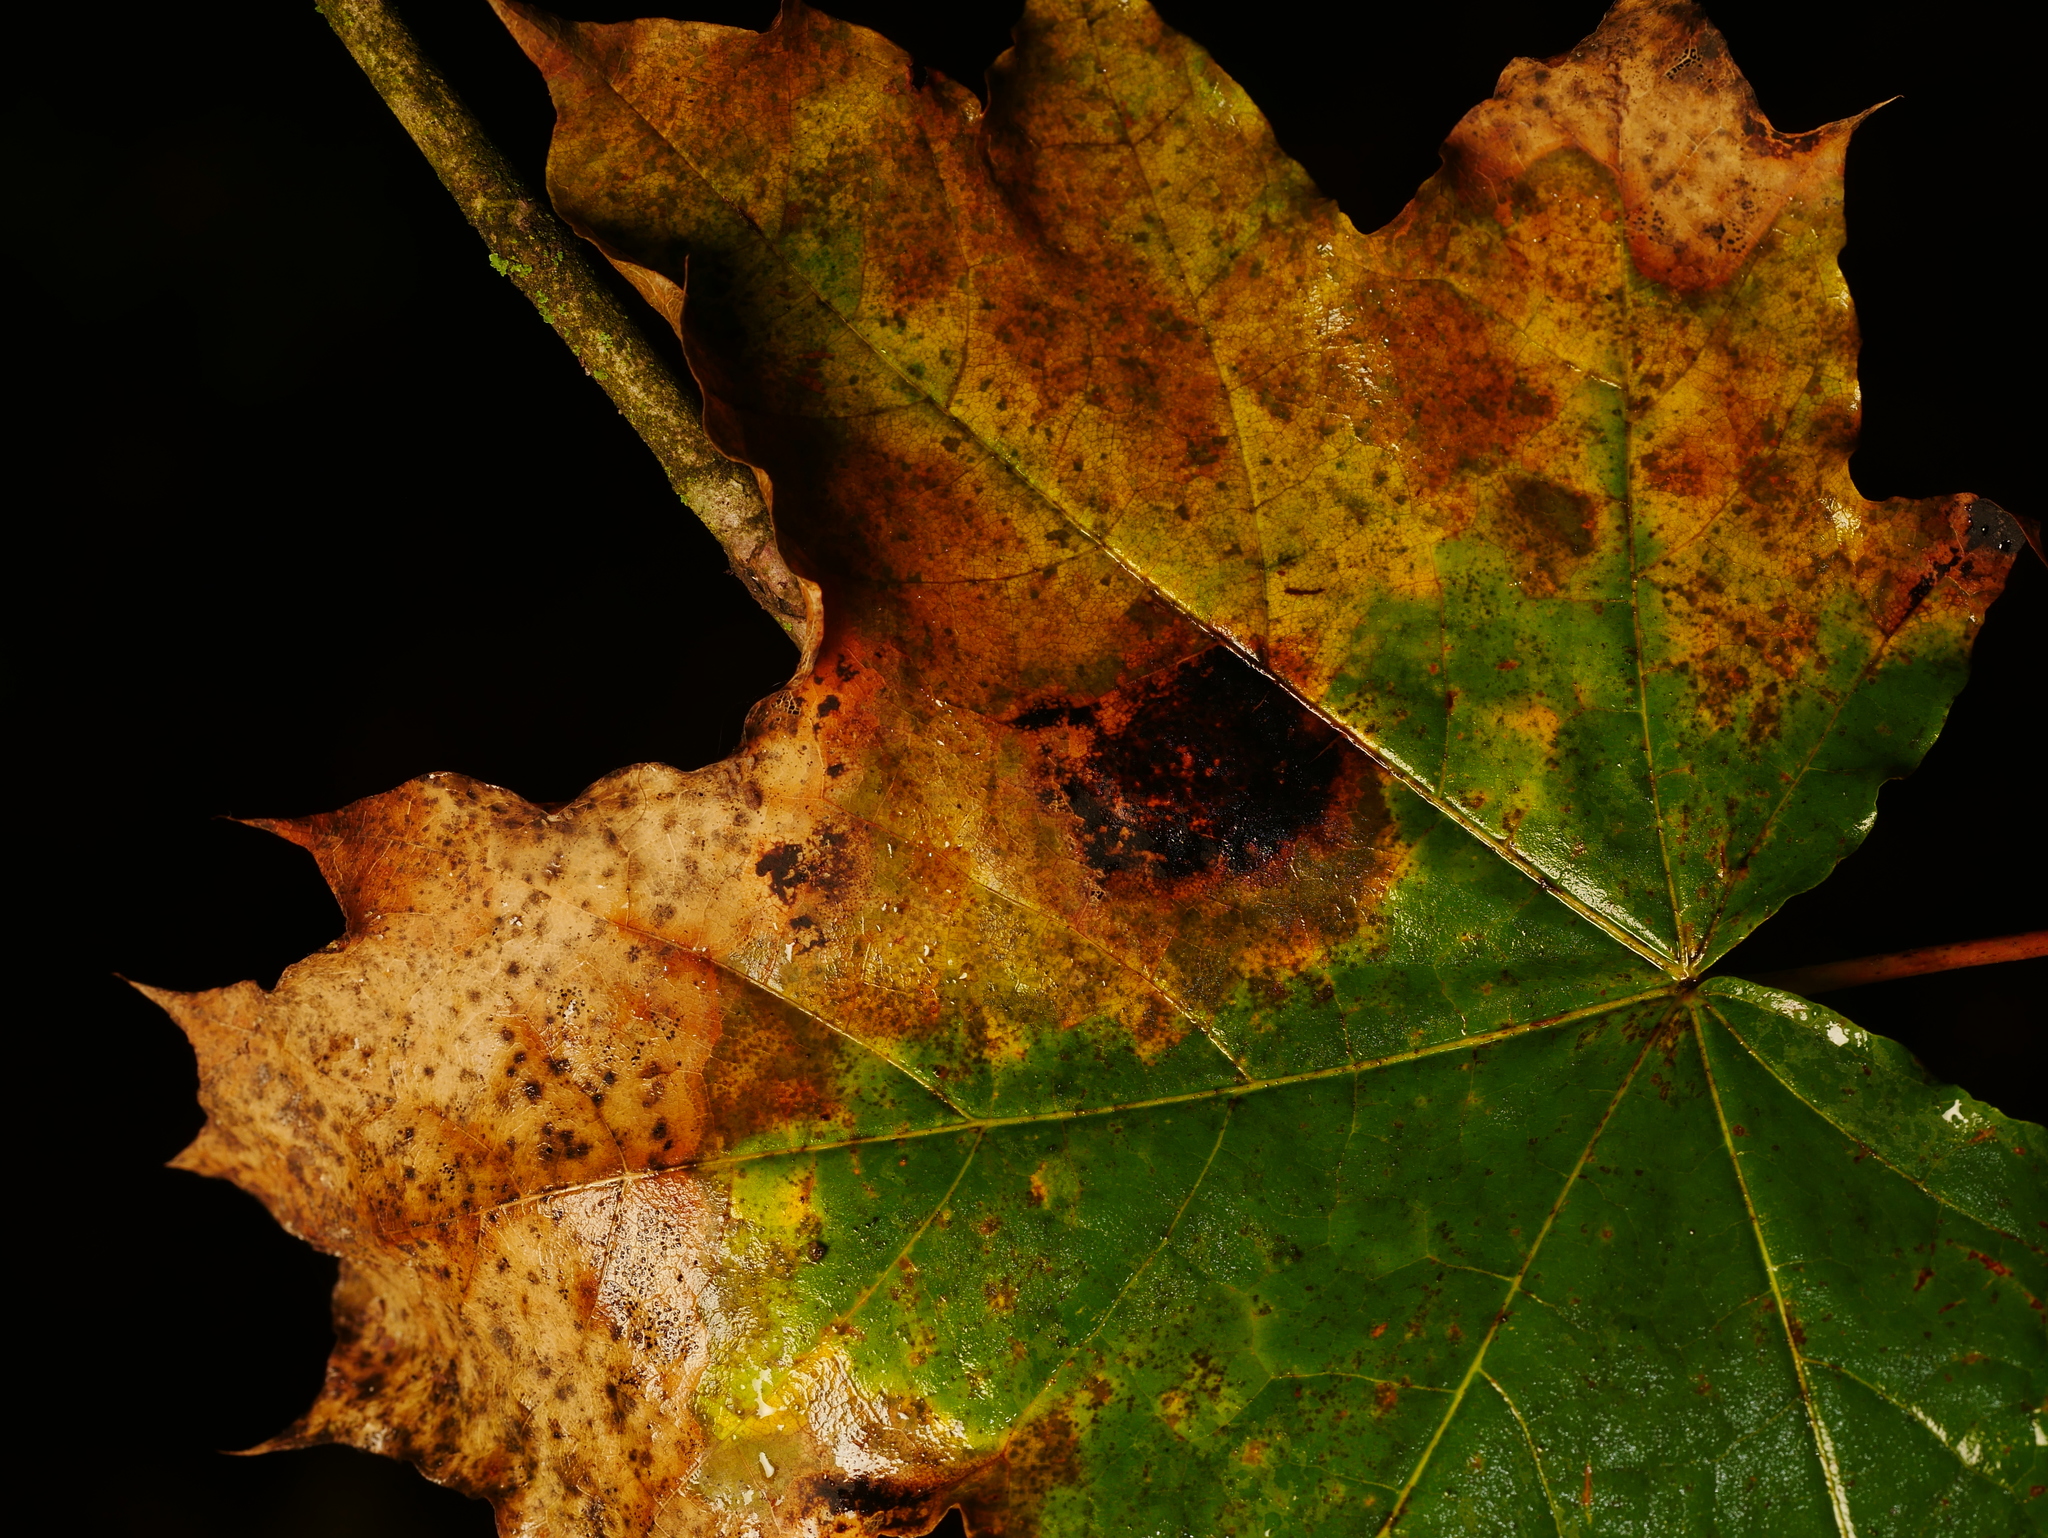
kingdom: Fungi
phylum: Ascomycota
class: Leotiomycetes
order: Rhytismatales
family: Rhytismataceae
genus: Rhytisma
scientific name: Rhytisma acerinum
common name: European tar spot
